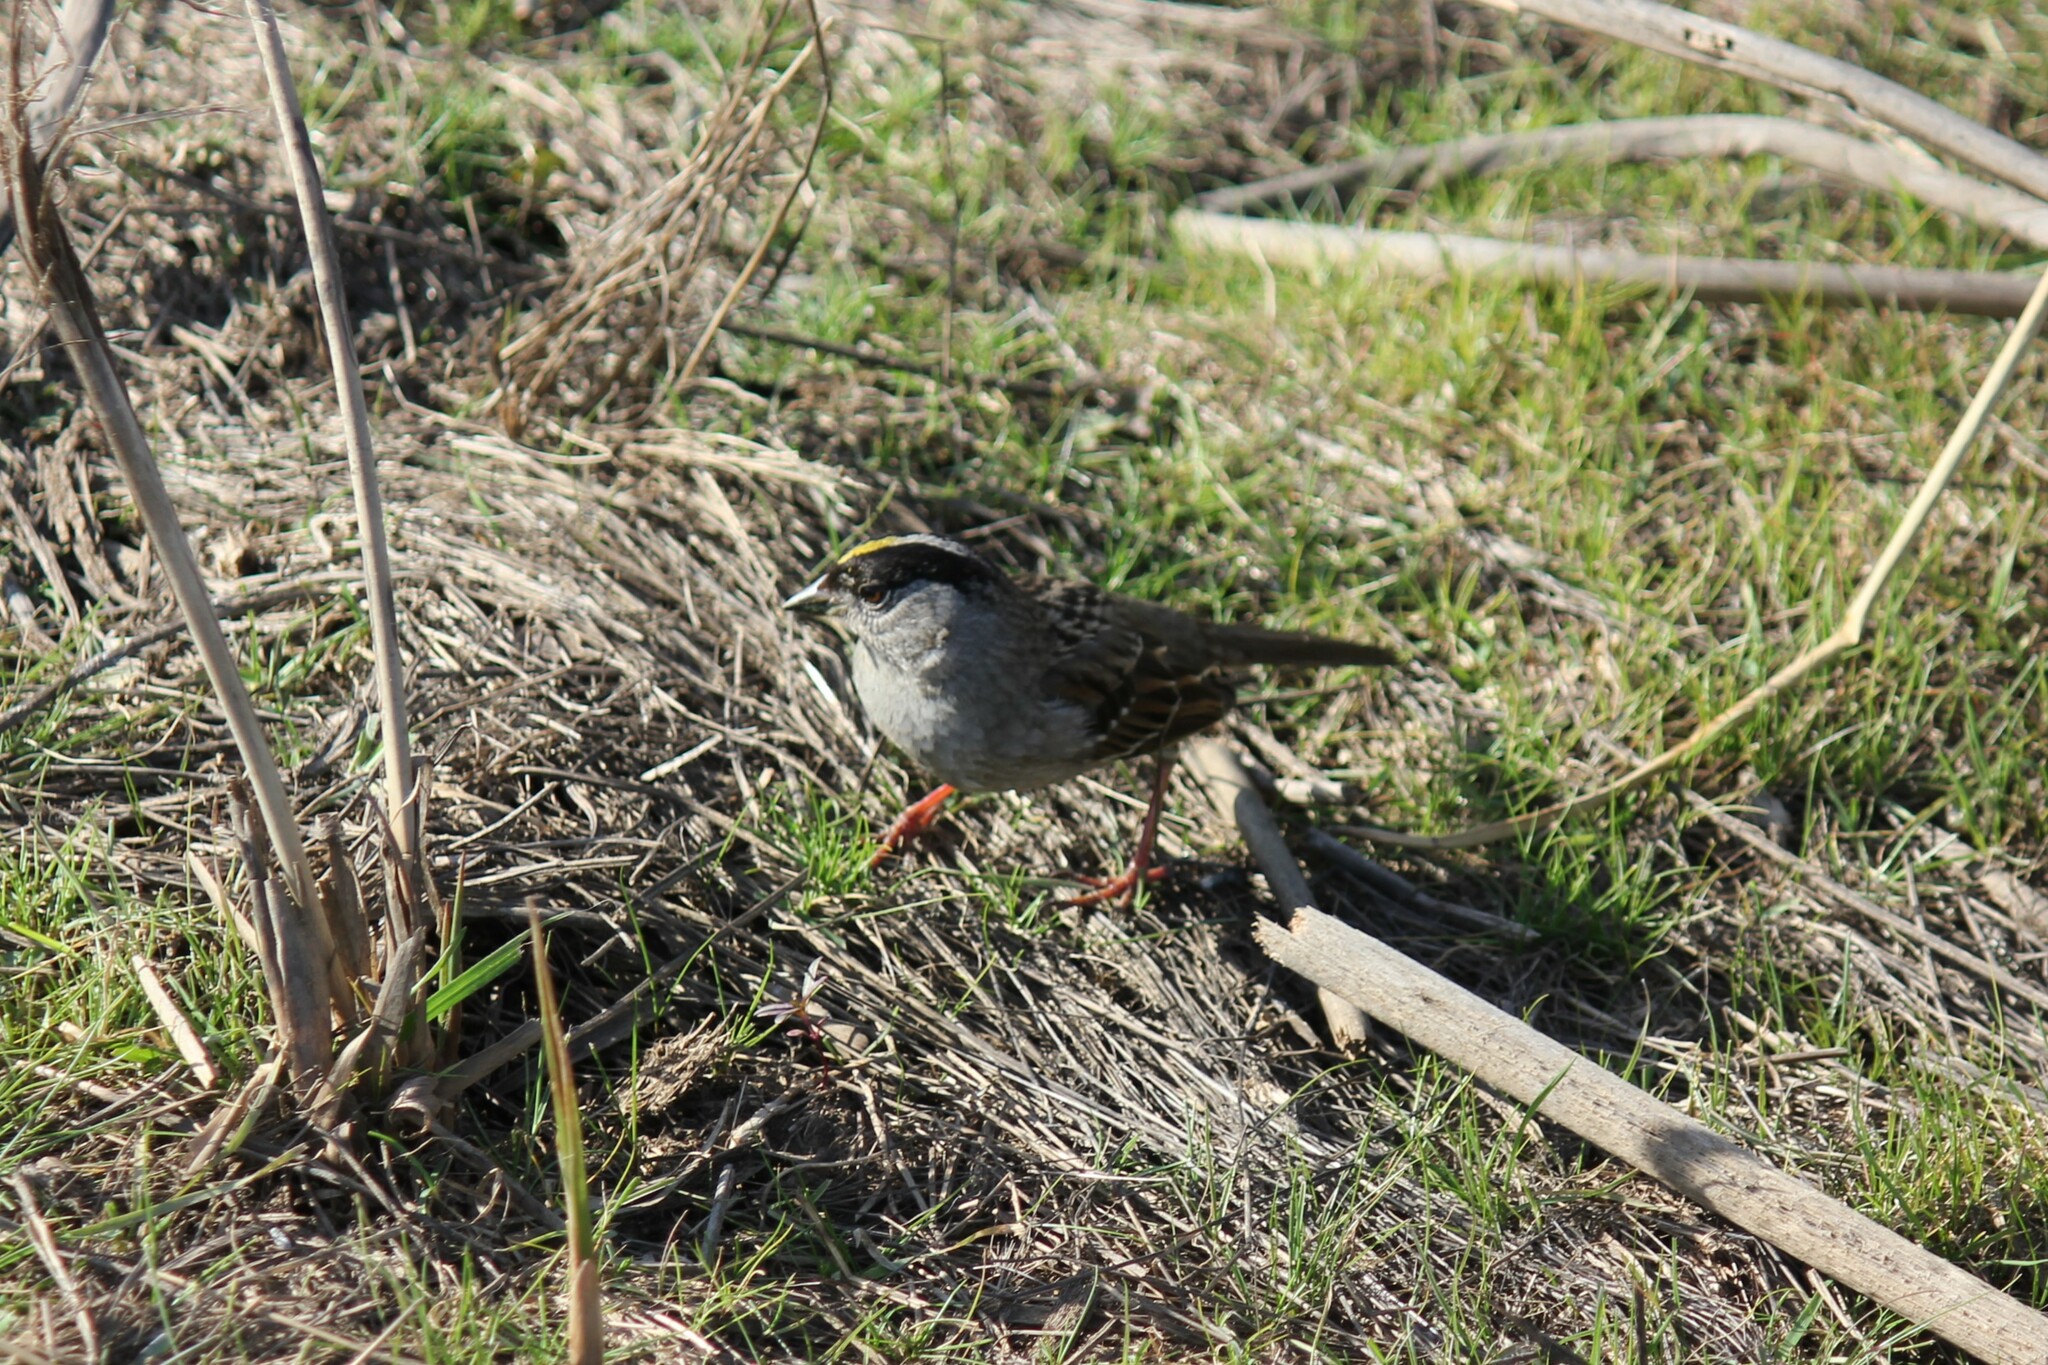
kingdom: Animalia
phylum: Chordata
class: Aves
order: Passeriformes
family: Passerellidae
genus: Zonotrichia
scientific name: Zonotrichia atricapilla
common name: Golden-crowned sparrow
